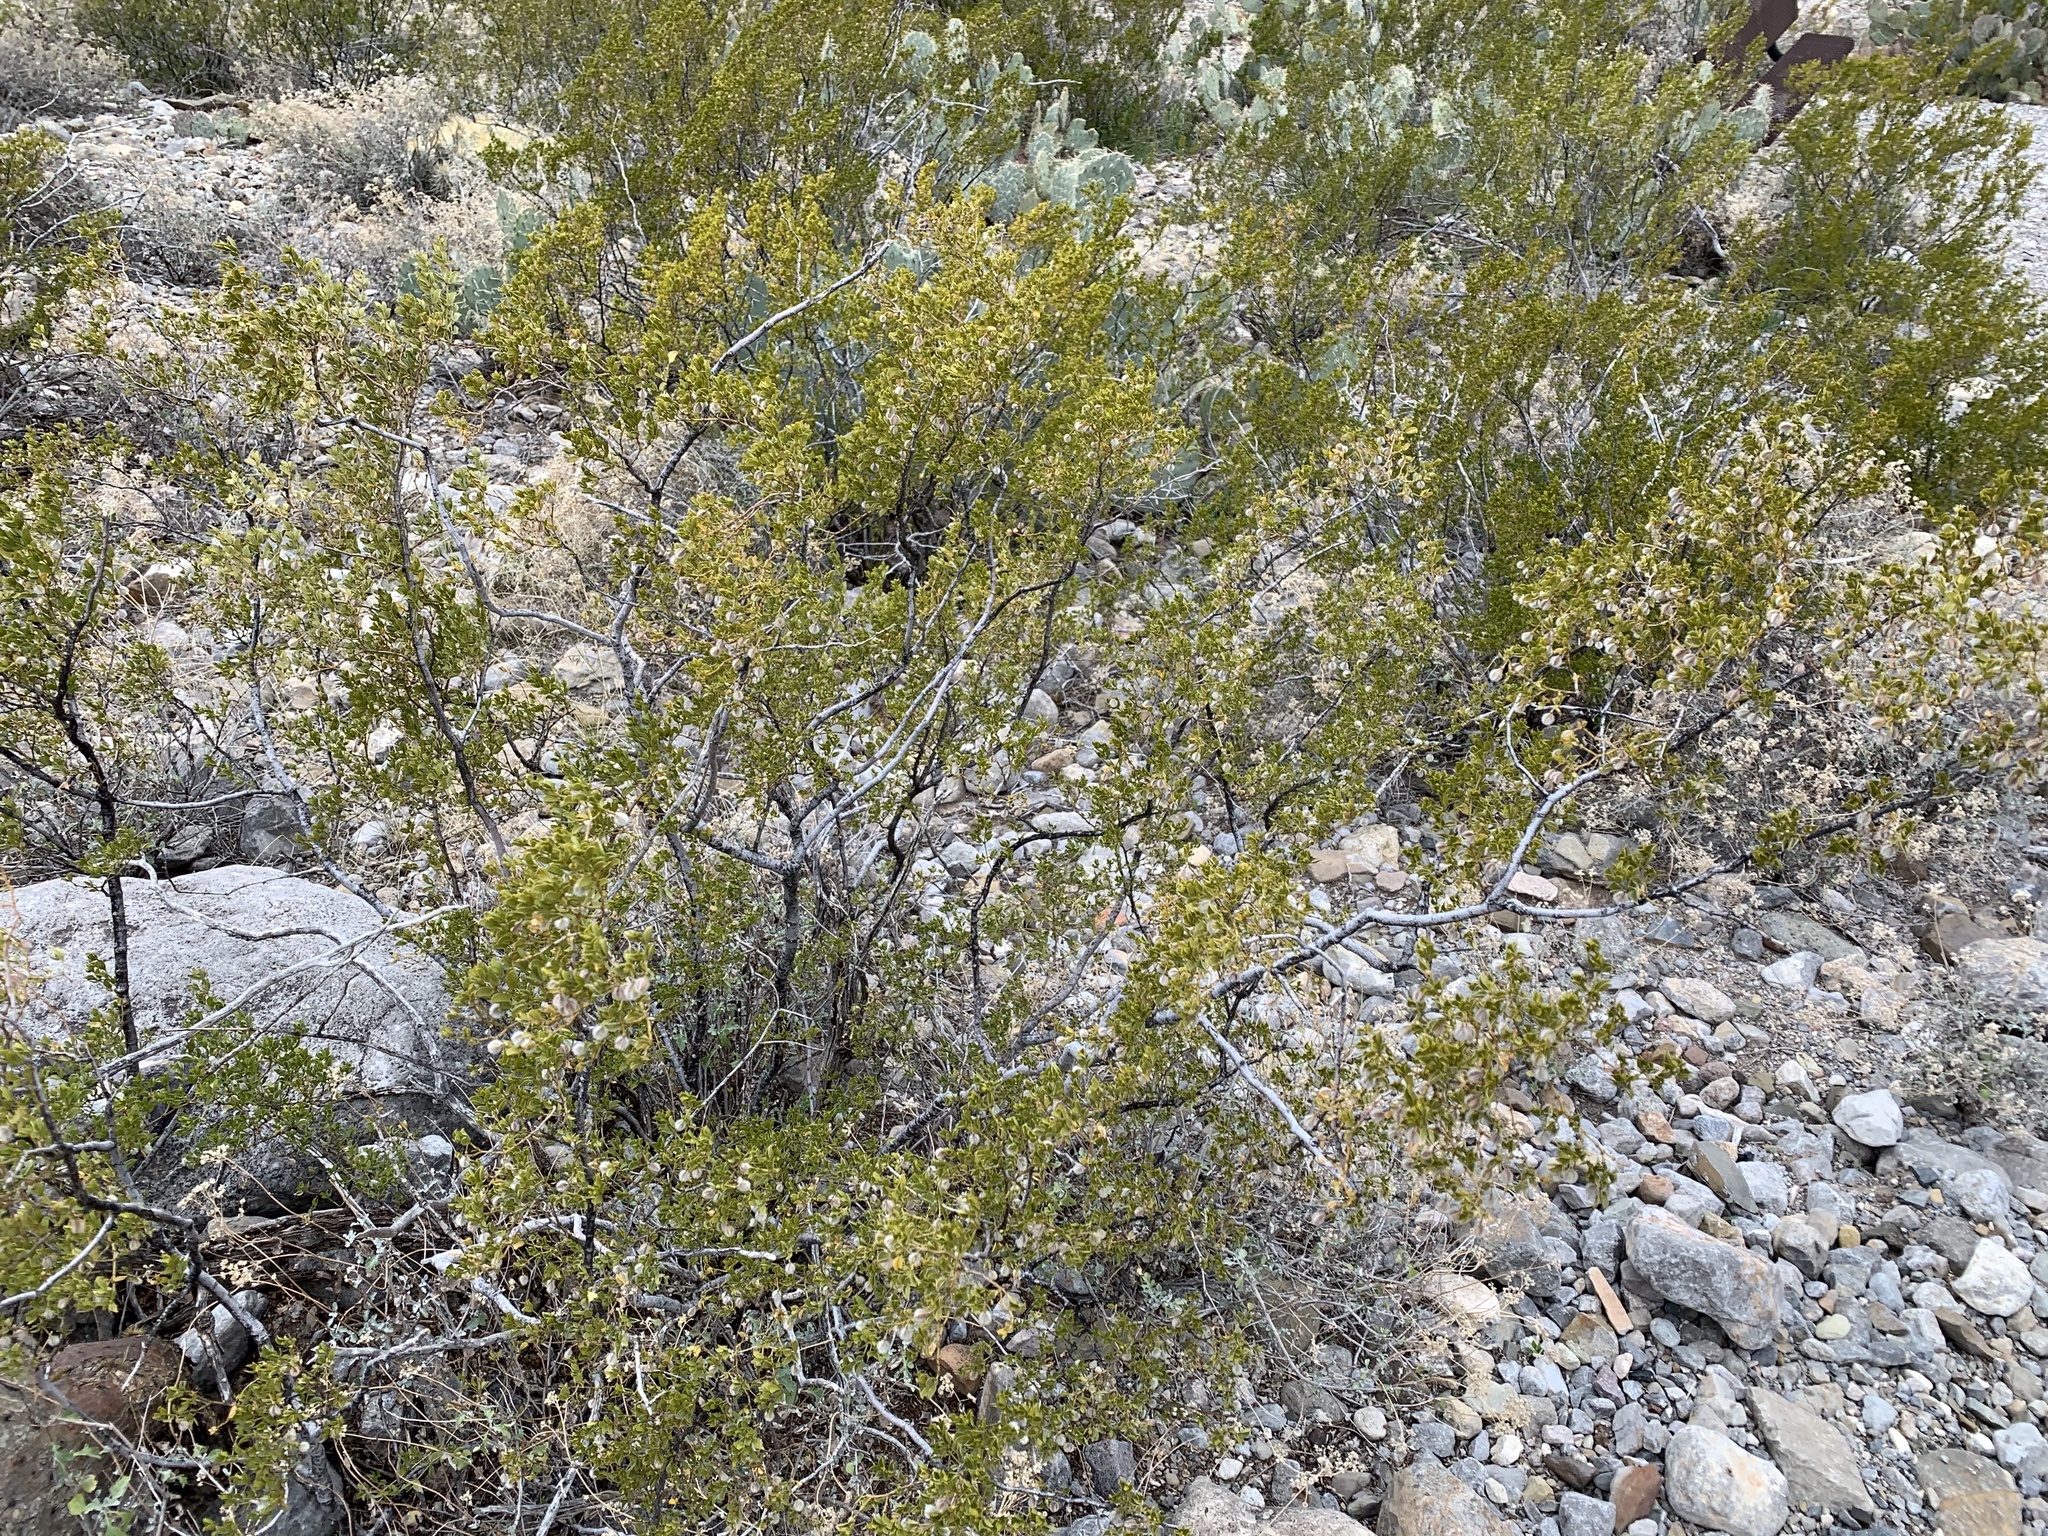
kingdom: Plantae
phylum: Tracheophyta
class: Magnoliopsida
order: Zygophyllales
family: Zygophyllaceae
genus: Larrea
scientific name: Larrea tridentata
